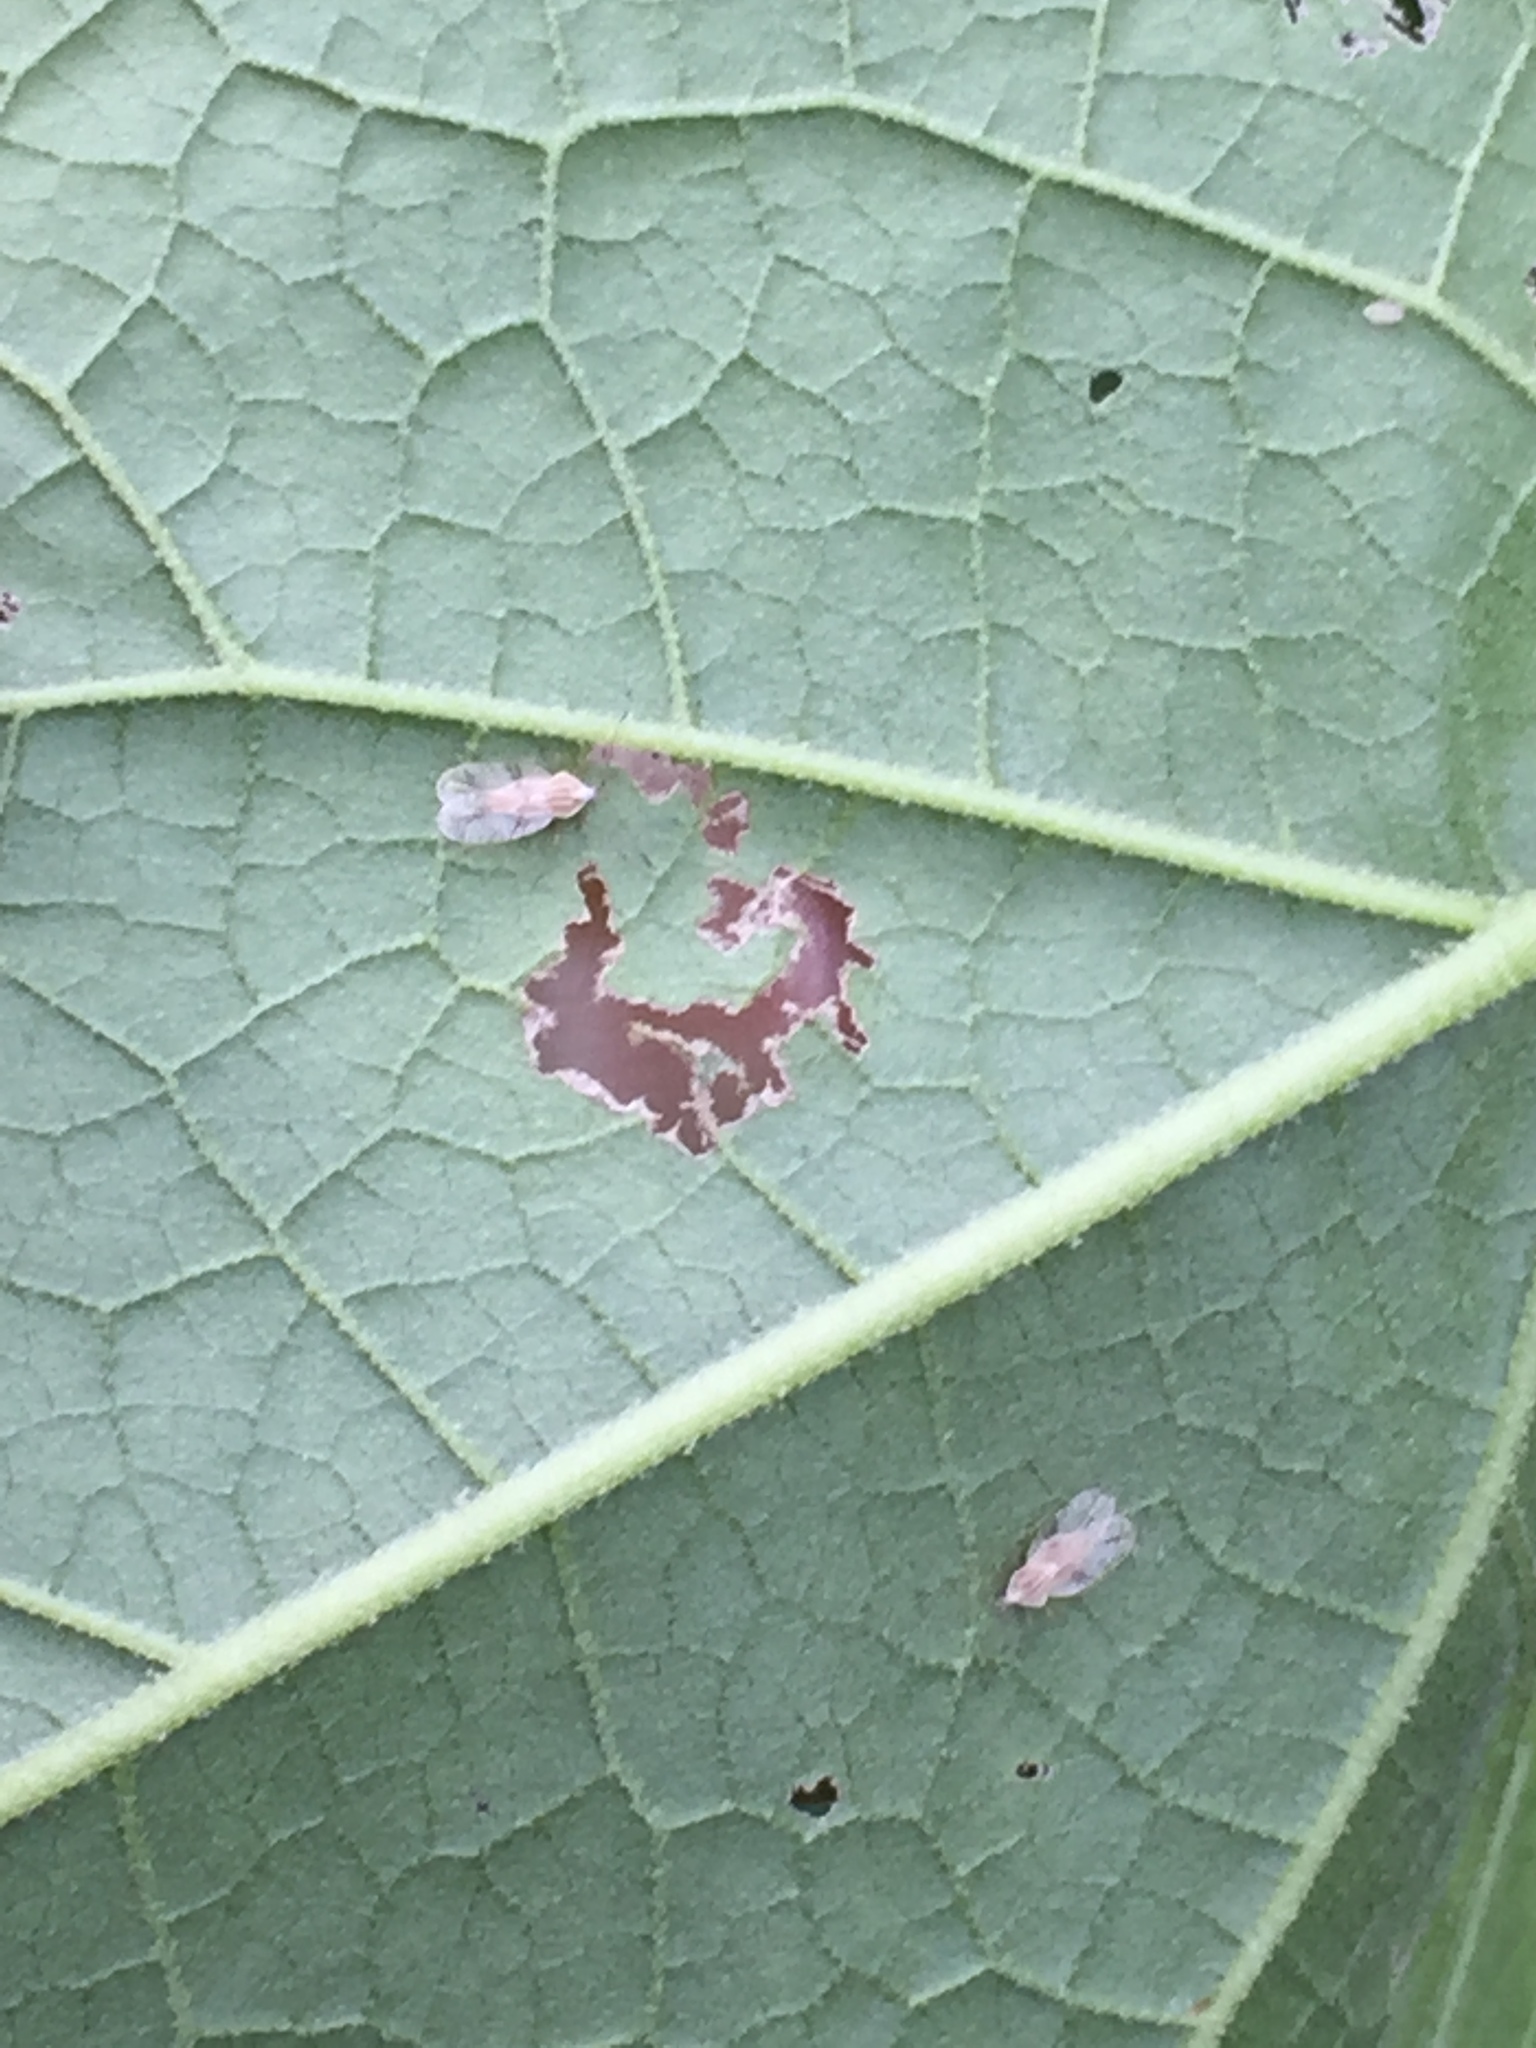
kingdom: Animalia
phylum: Arthropoda
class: Insecta
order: Hemiptera
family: Tingidae
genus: Gargaphia
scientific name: Gargaphia decoris
